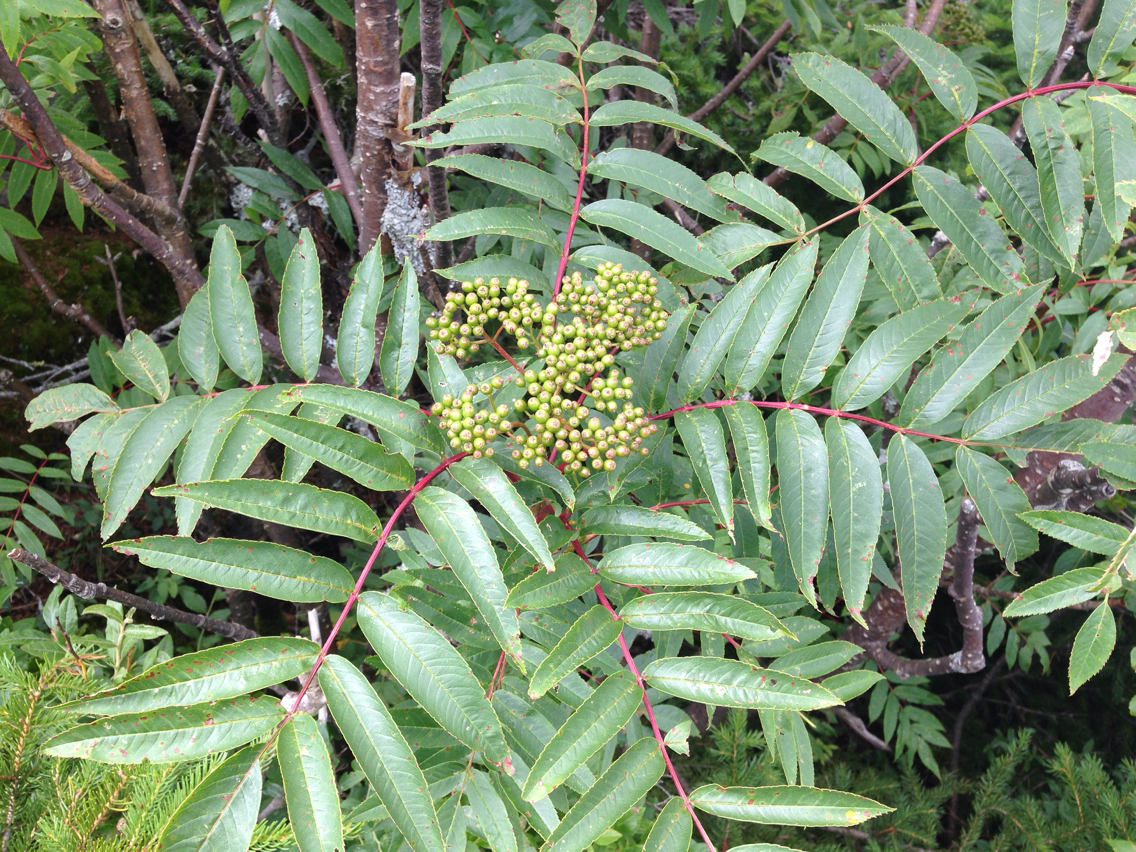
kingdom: Plantae
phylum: Tracheophyta
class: Magnoliopsida
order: Rosales
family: Rosaceae
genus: Sorbus
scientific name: Sorbus americana
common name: American mountain-ash
